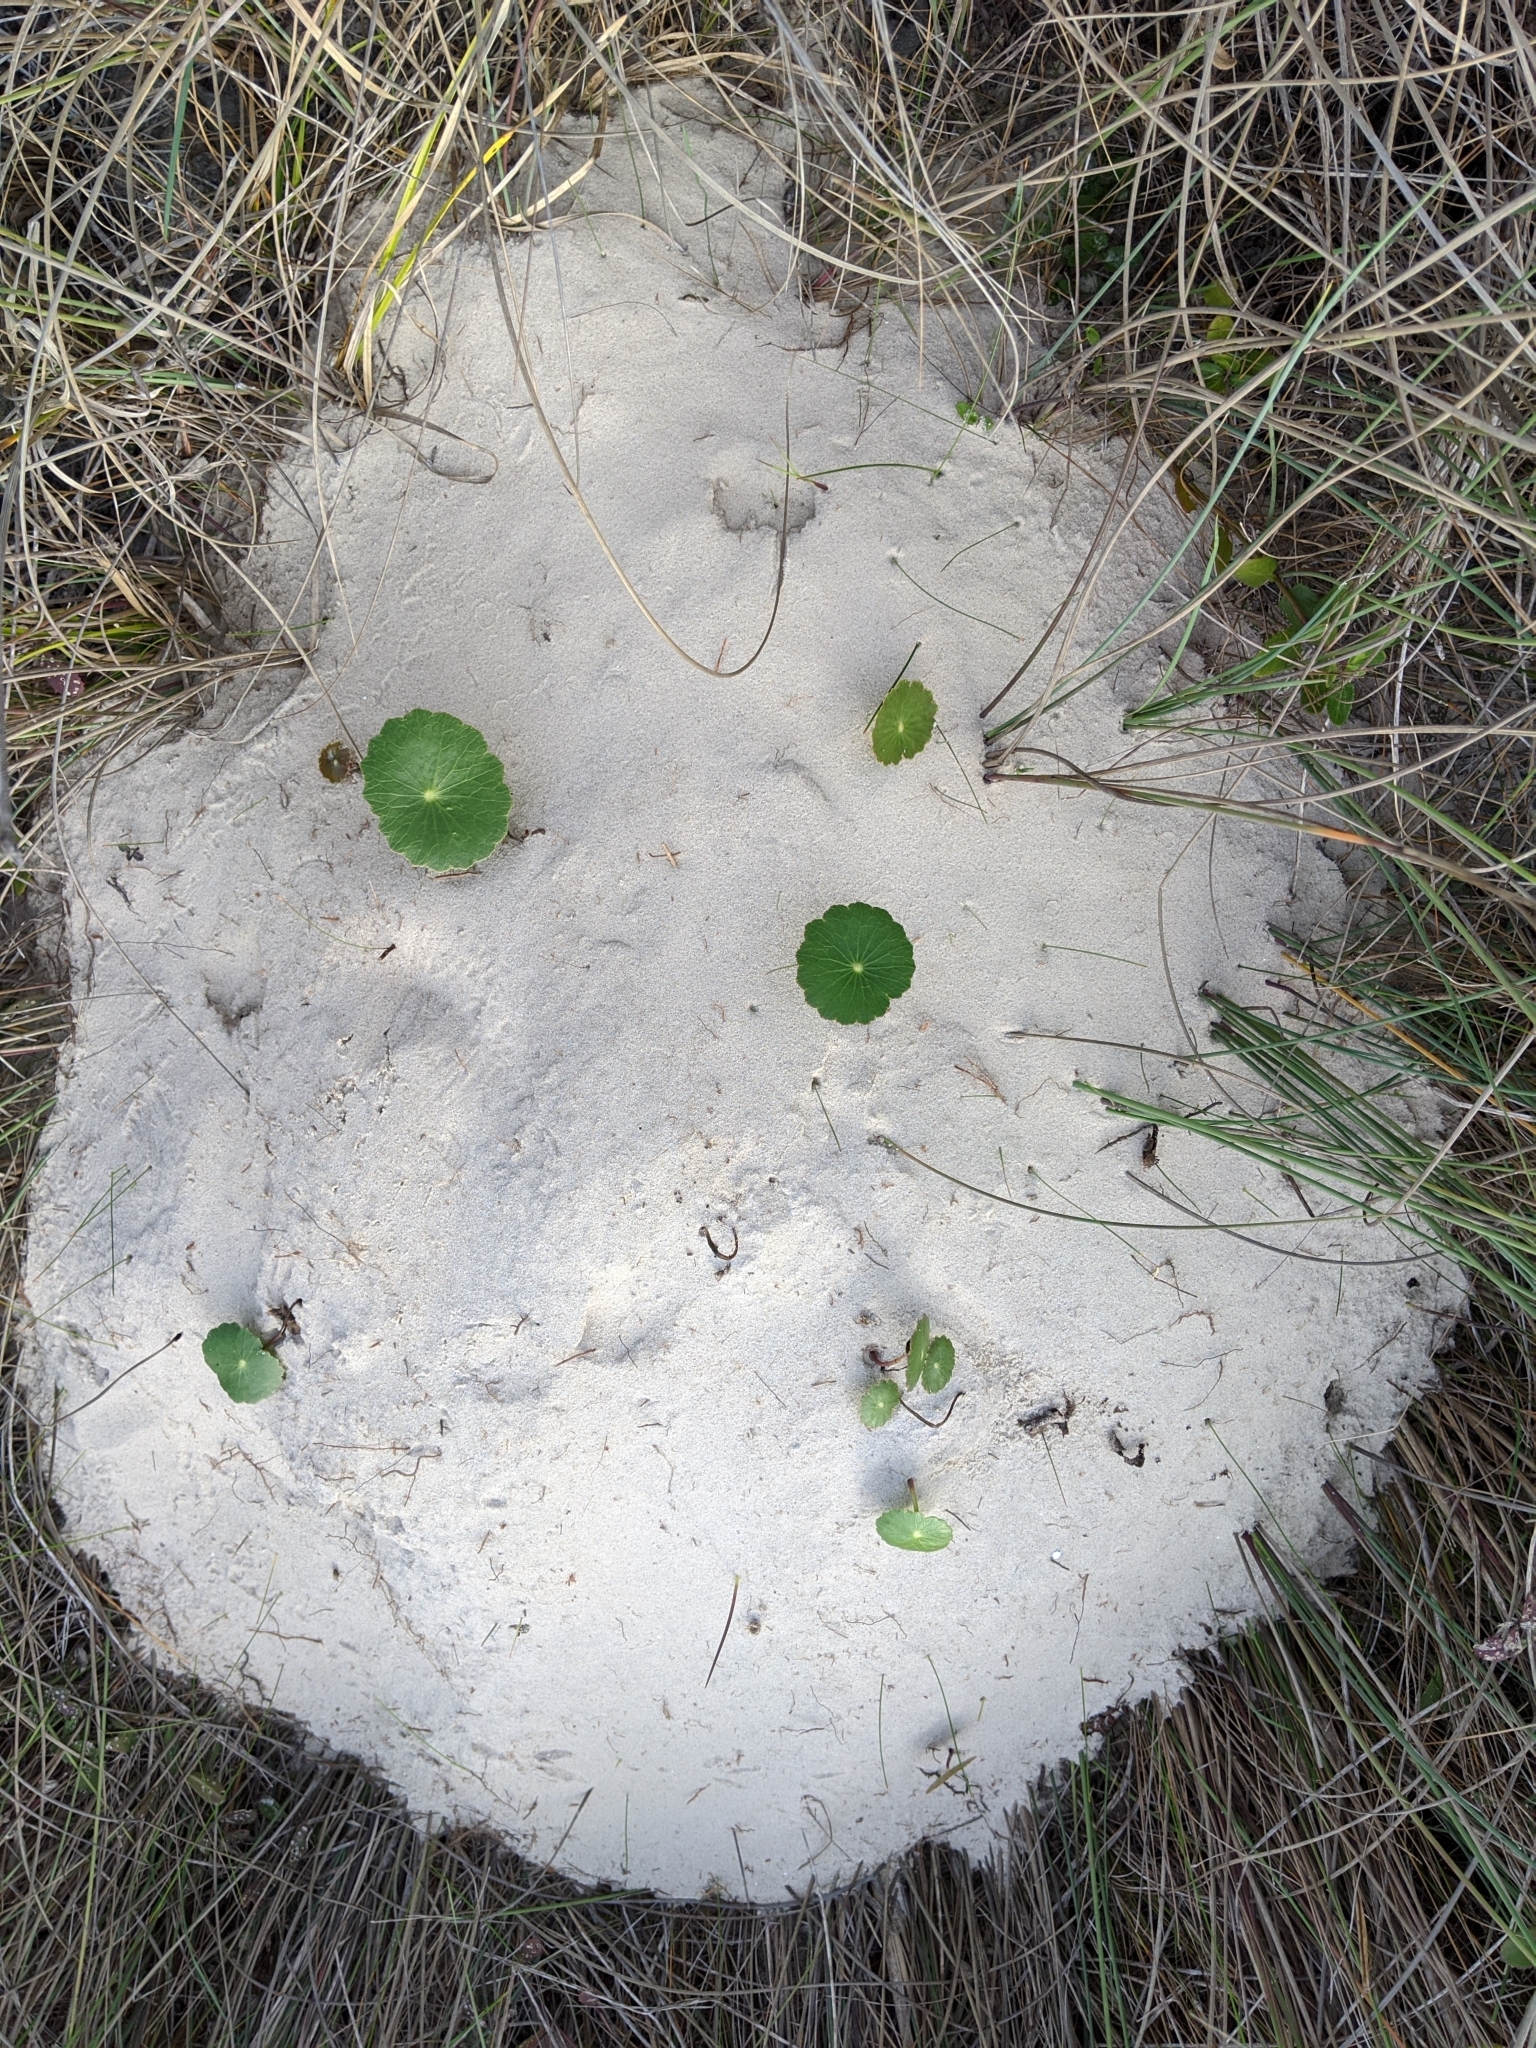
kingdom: Plantae
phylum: Tracheophyta
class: Magnoliopsida
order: Apiales
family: Araliaceae
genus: Hydrocotyle
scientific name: Hydrocotyle bonariensis
